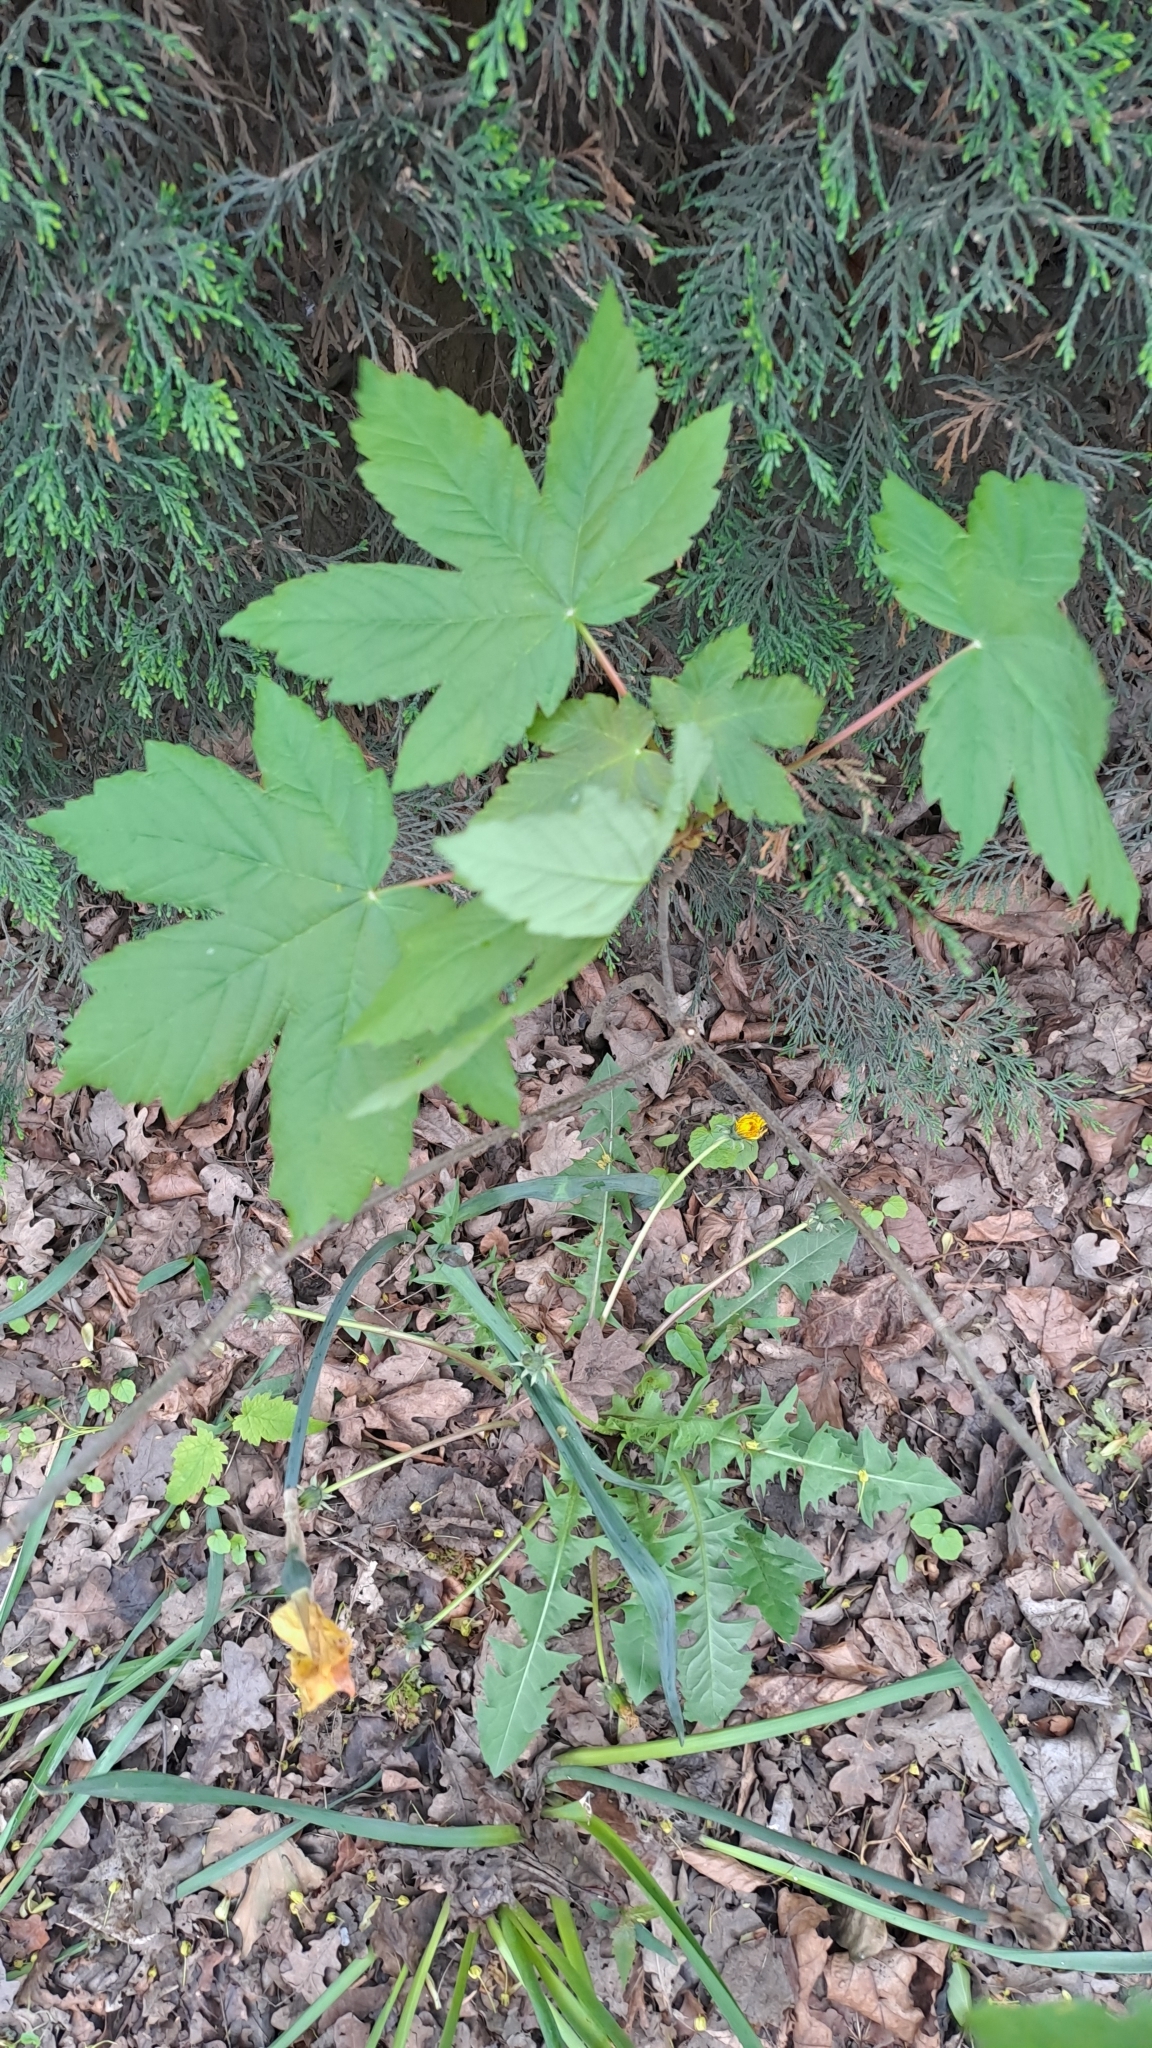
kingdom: Plantae
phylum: Tracheophyta
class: Magnoliopsida
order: Sapindales
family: Sapindaceae
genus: Acer
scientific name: Acer pseudoplatanus
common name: Sycamore
